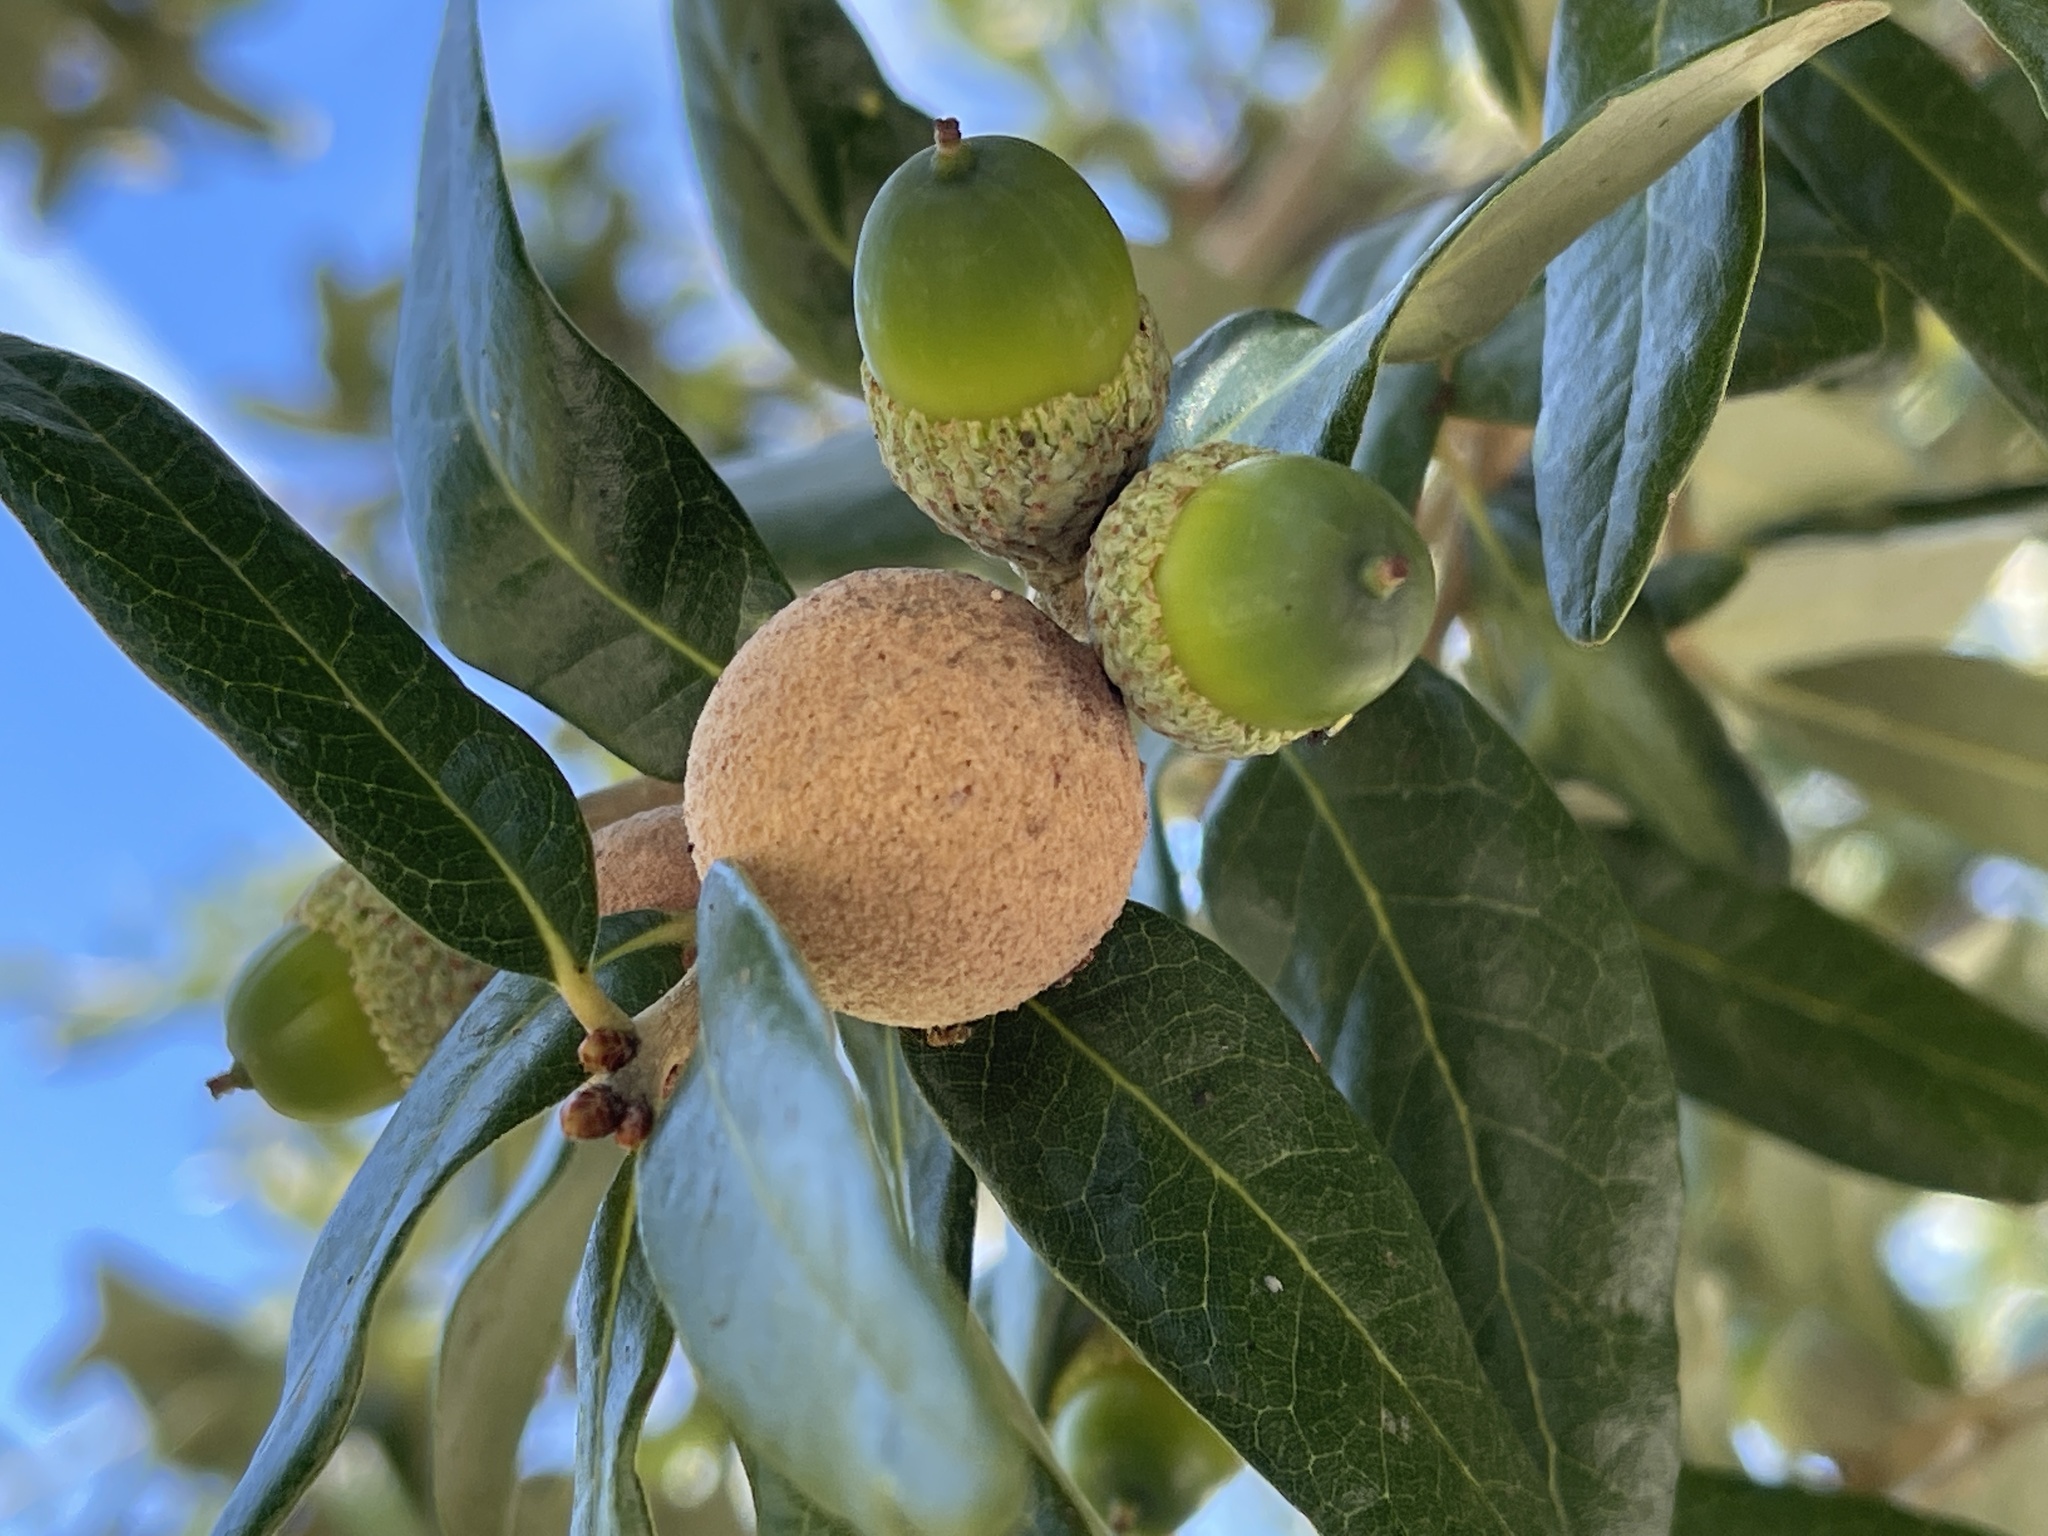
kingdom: Animalia
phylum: Arthropoda
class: Insecta
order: Hymenoptera
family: Cynipidae
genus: Disholcaspis
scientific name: Disholcaspis
